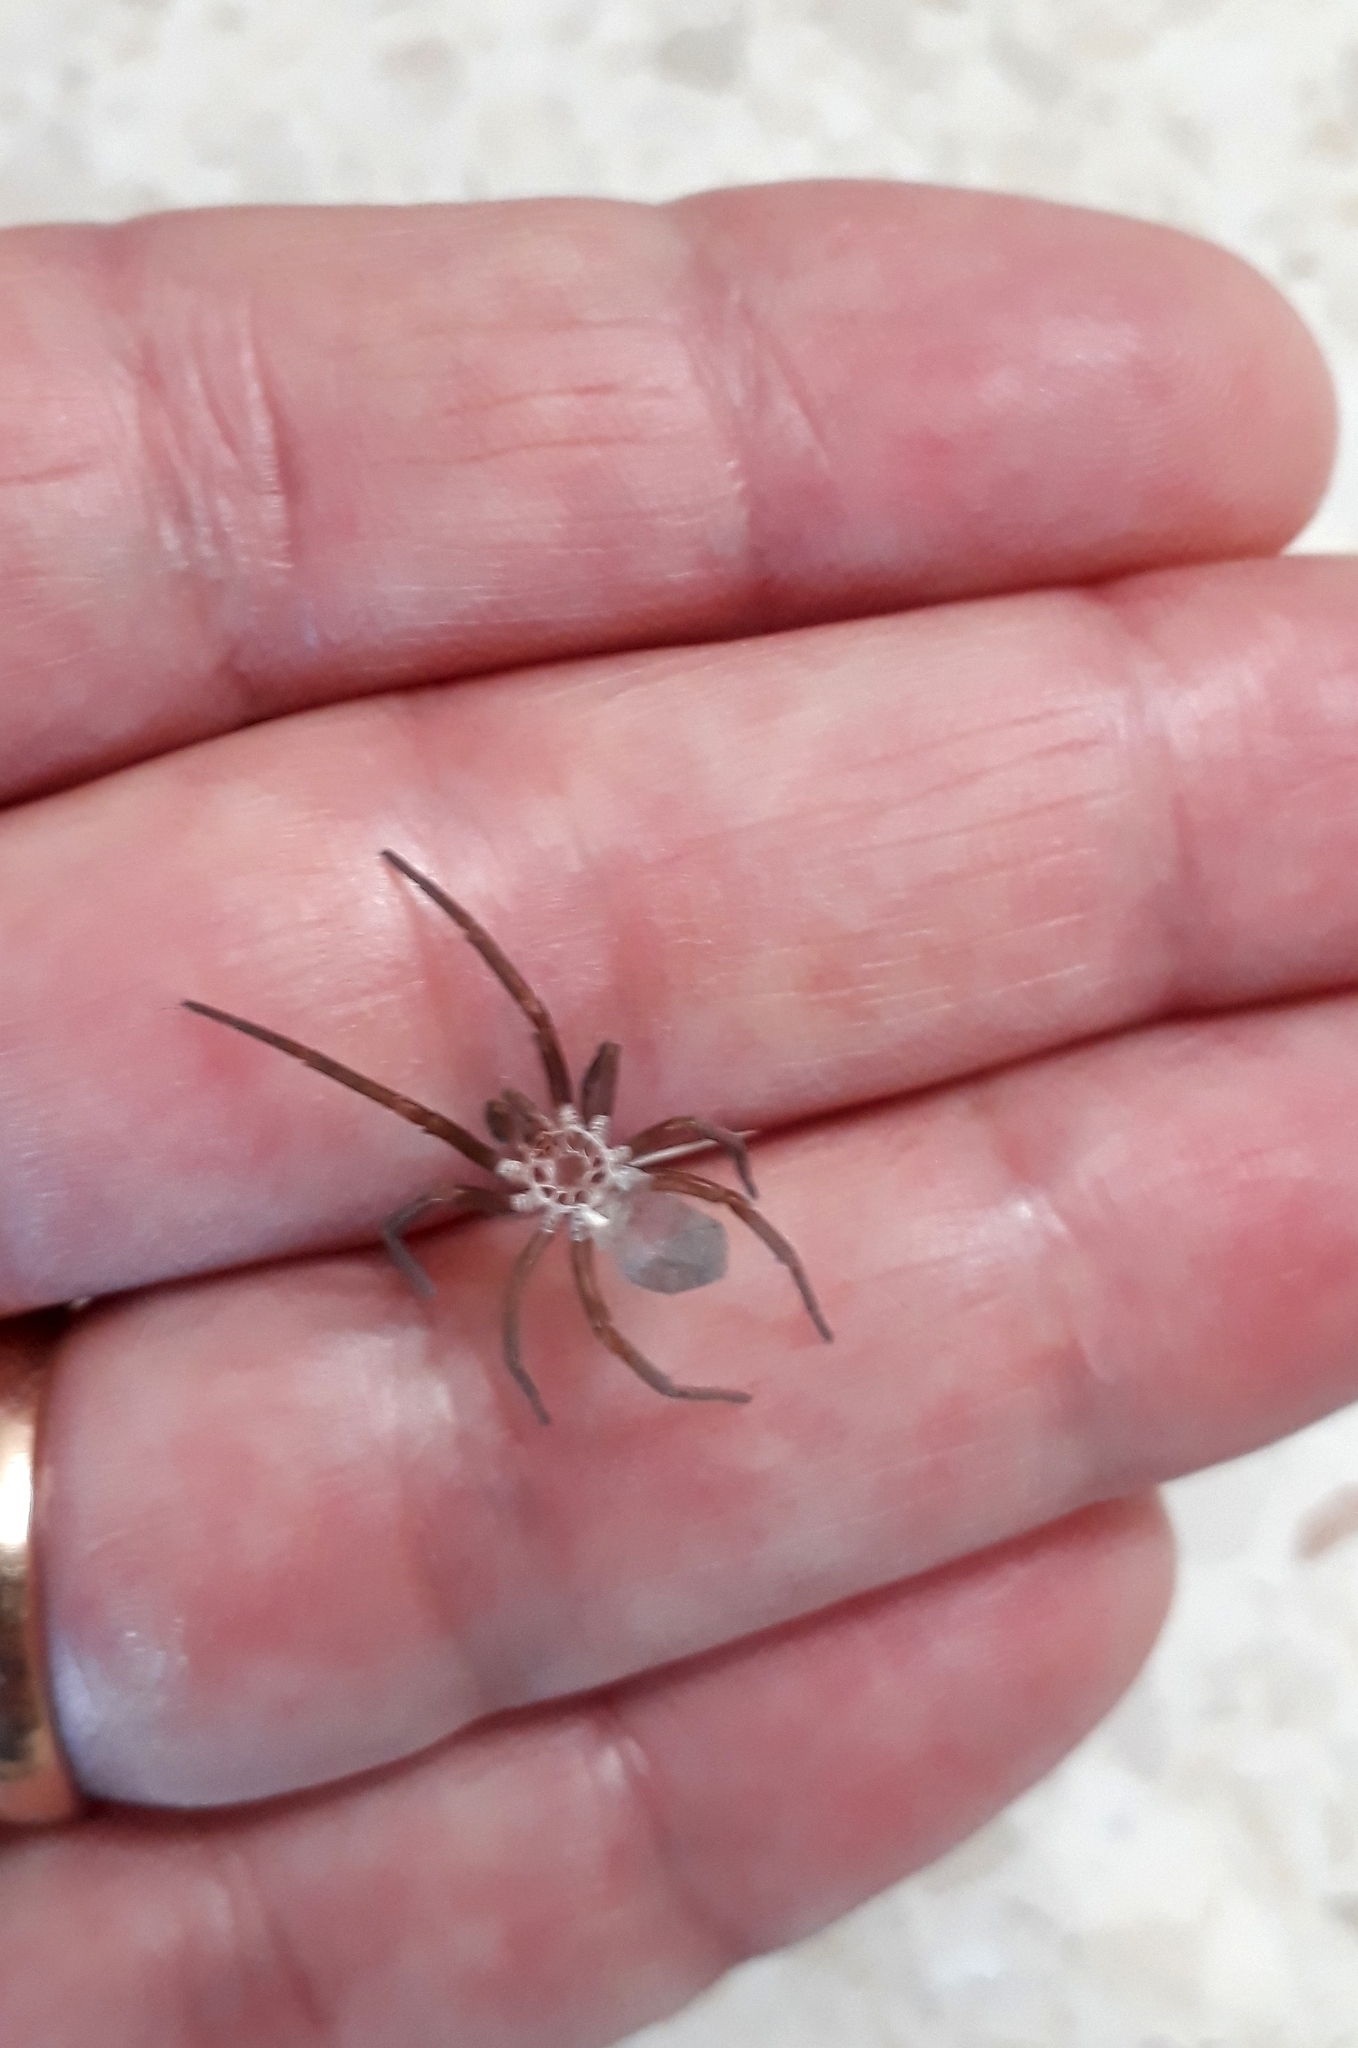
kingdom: Animalia
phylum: Arthropoda
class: Arachnida
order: Araneae
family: Filistatidae
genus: Kukulcania
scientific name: Kukulcania hibernalis
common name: Crevice weaver
